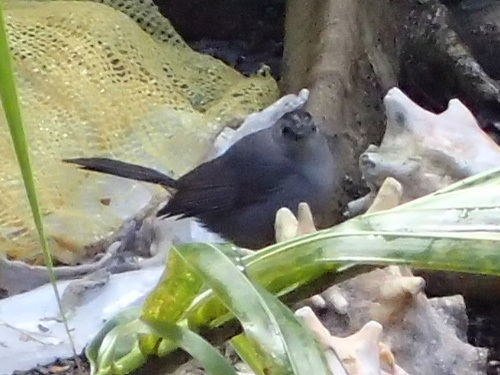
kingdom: Animalia
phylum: Chordata
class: Aves
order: Passeriformes
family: Mimidae
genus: Dumetella
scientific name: Dumetella carolinensis
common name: Gray catbird
